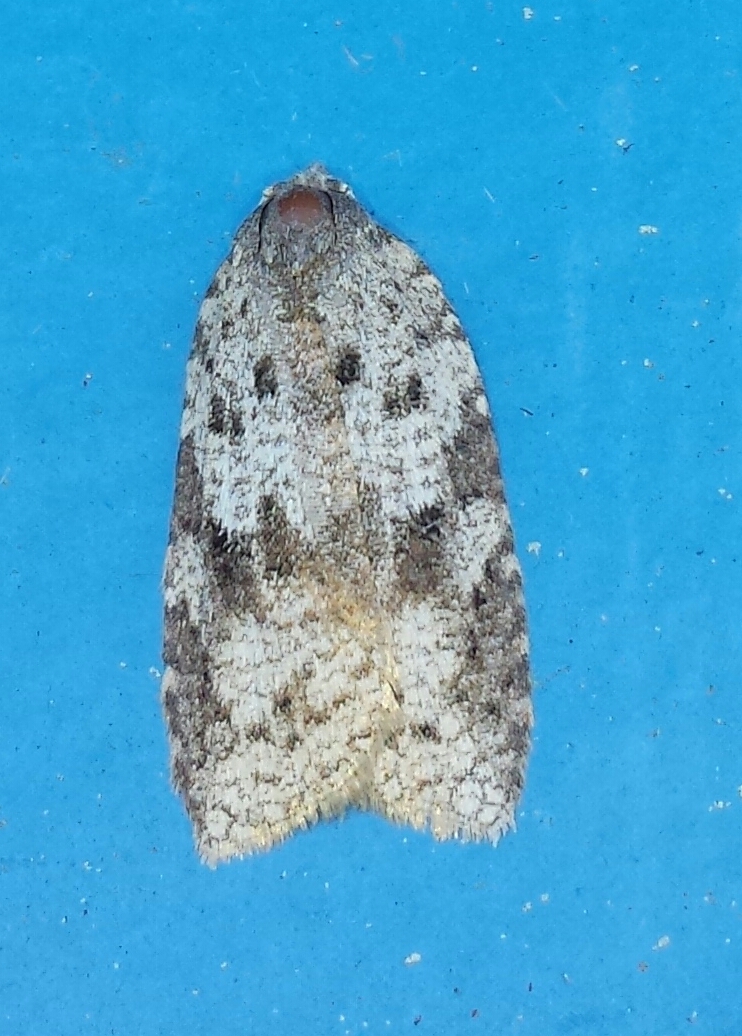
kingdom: Animalia
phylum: Arthropoda
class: Insecta
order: Lepidoptera
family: Tortricidae
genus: Amorbia
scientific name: Amorbia humerosana
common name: White-lined leafroller moth
